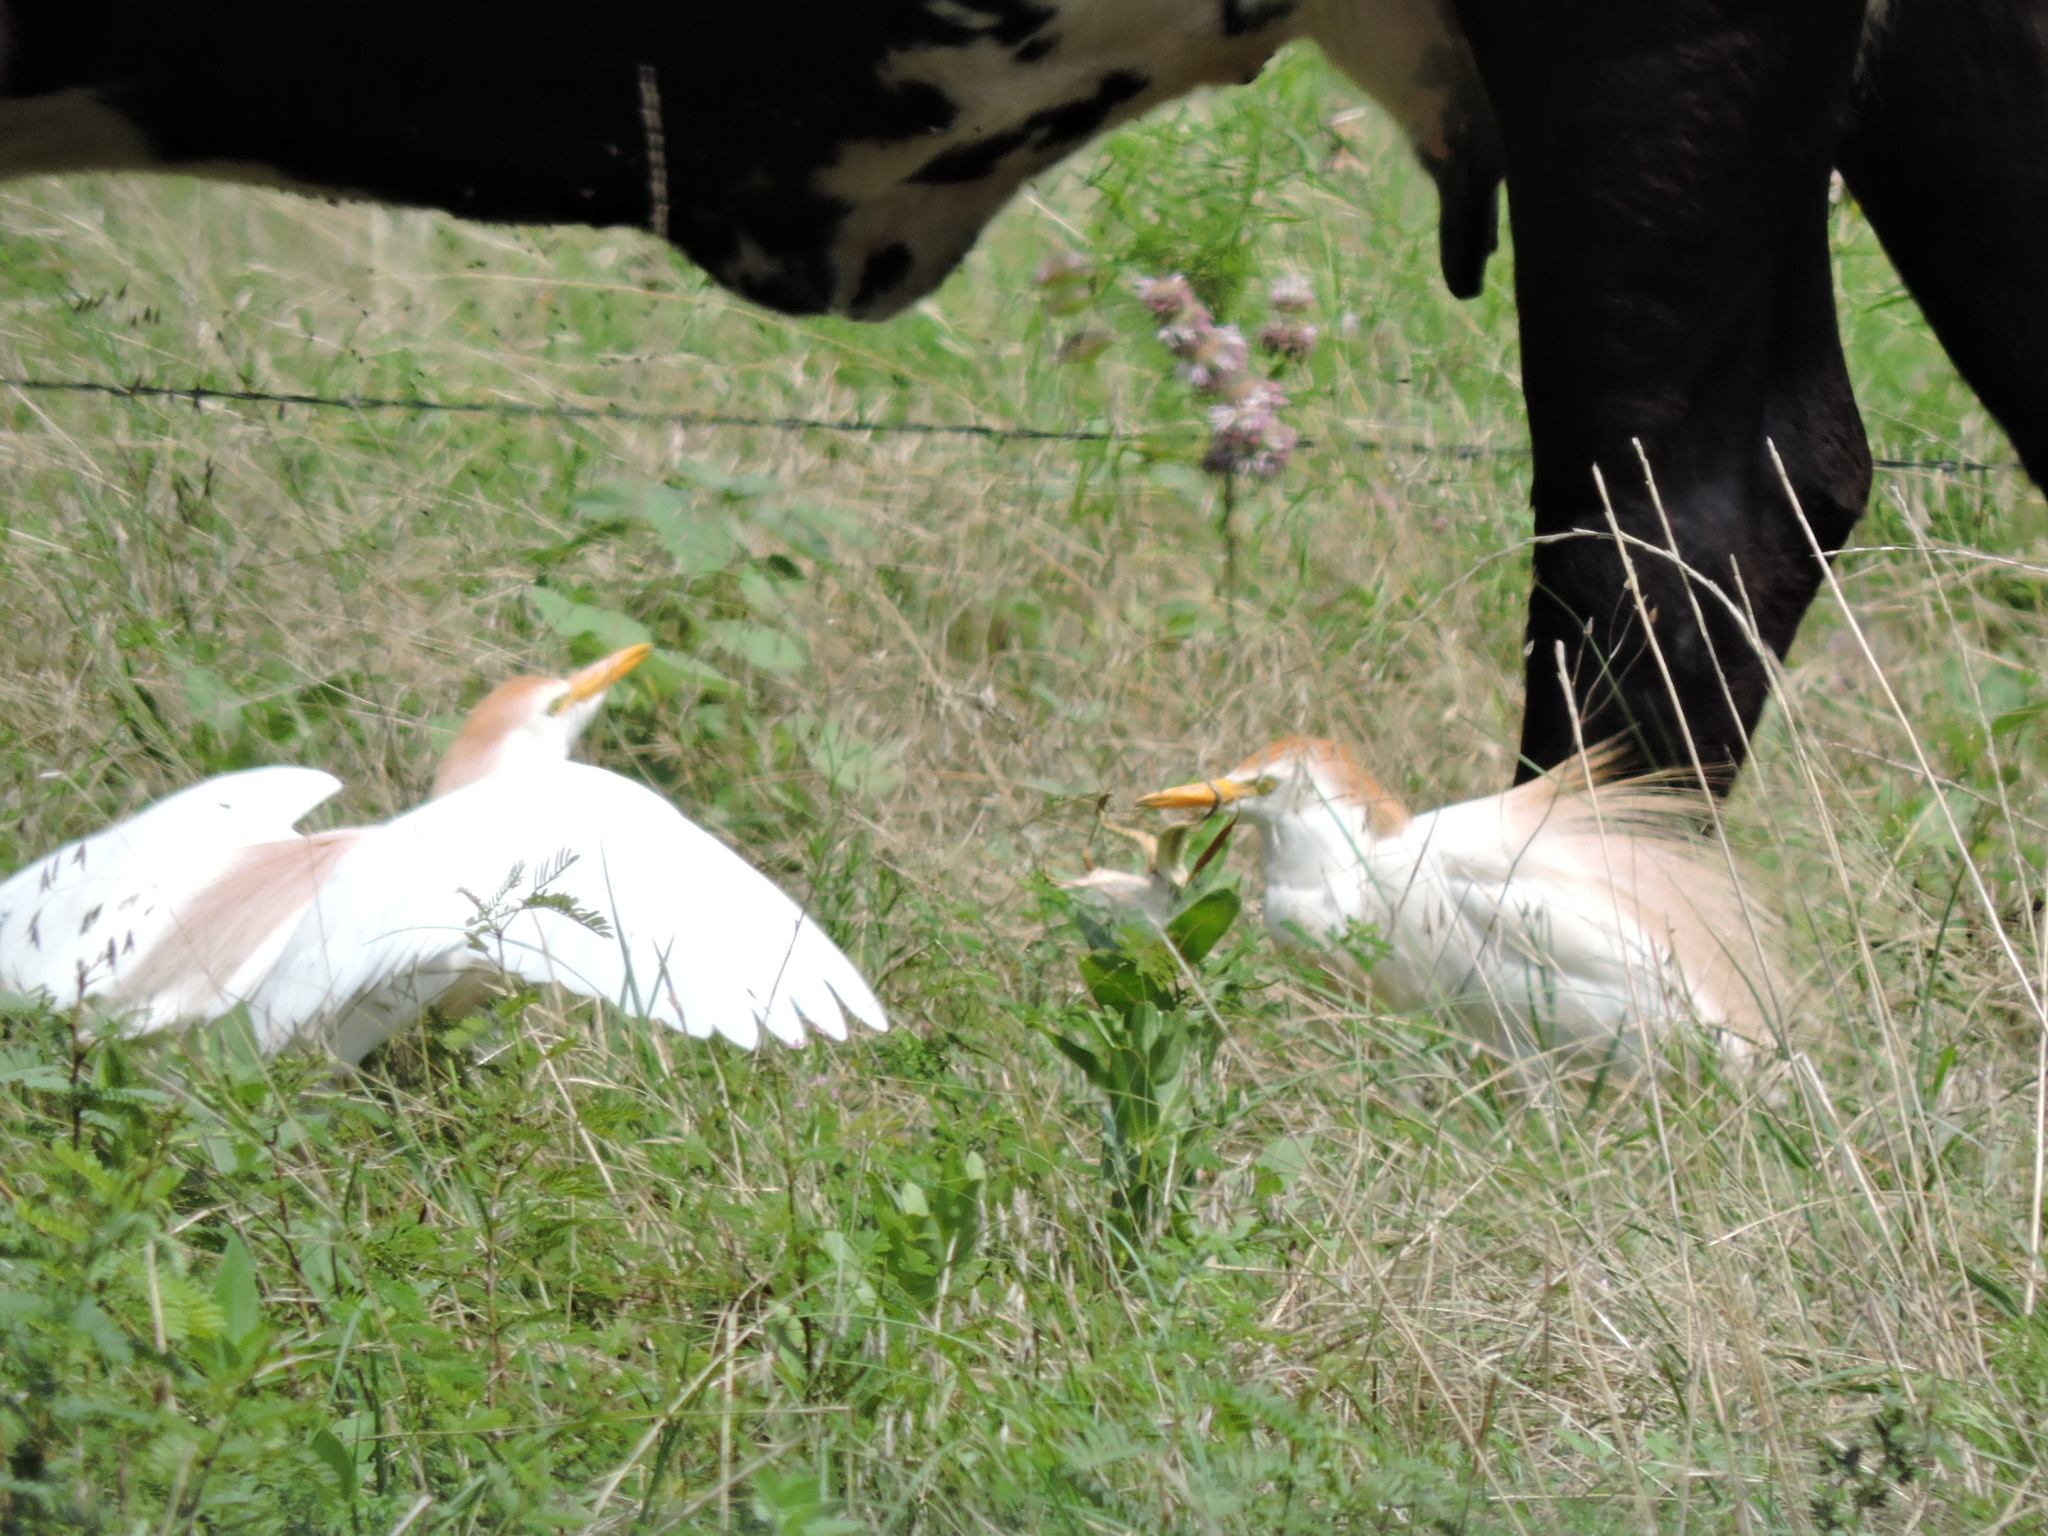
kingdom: Animalia
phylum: Chordata
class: Aves
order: Pelecaniformes
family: Ardeidae
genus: Bubulcus
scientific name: Bubulcus ibis
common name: Cattle egret
